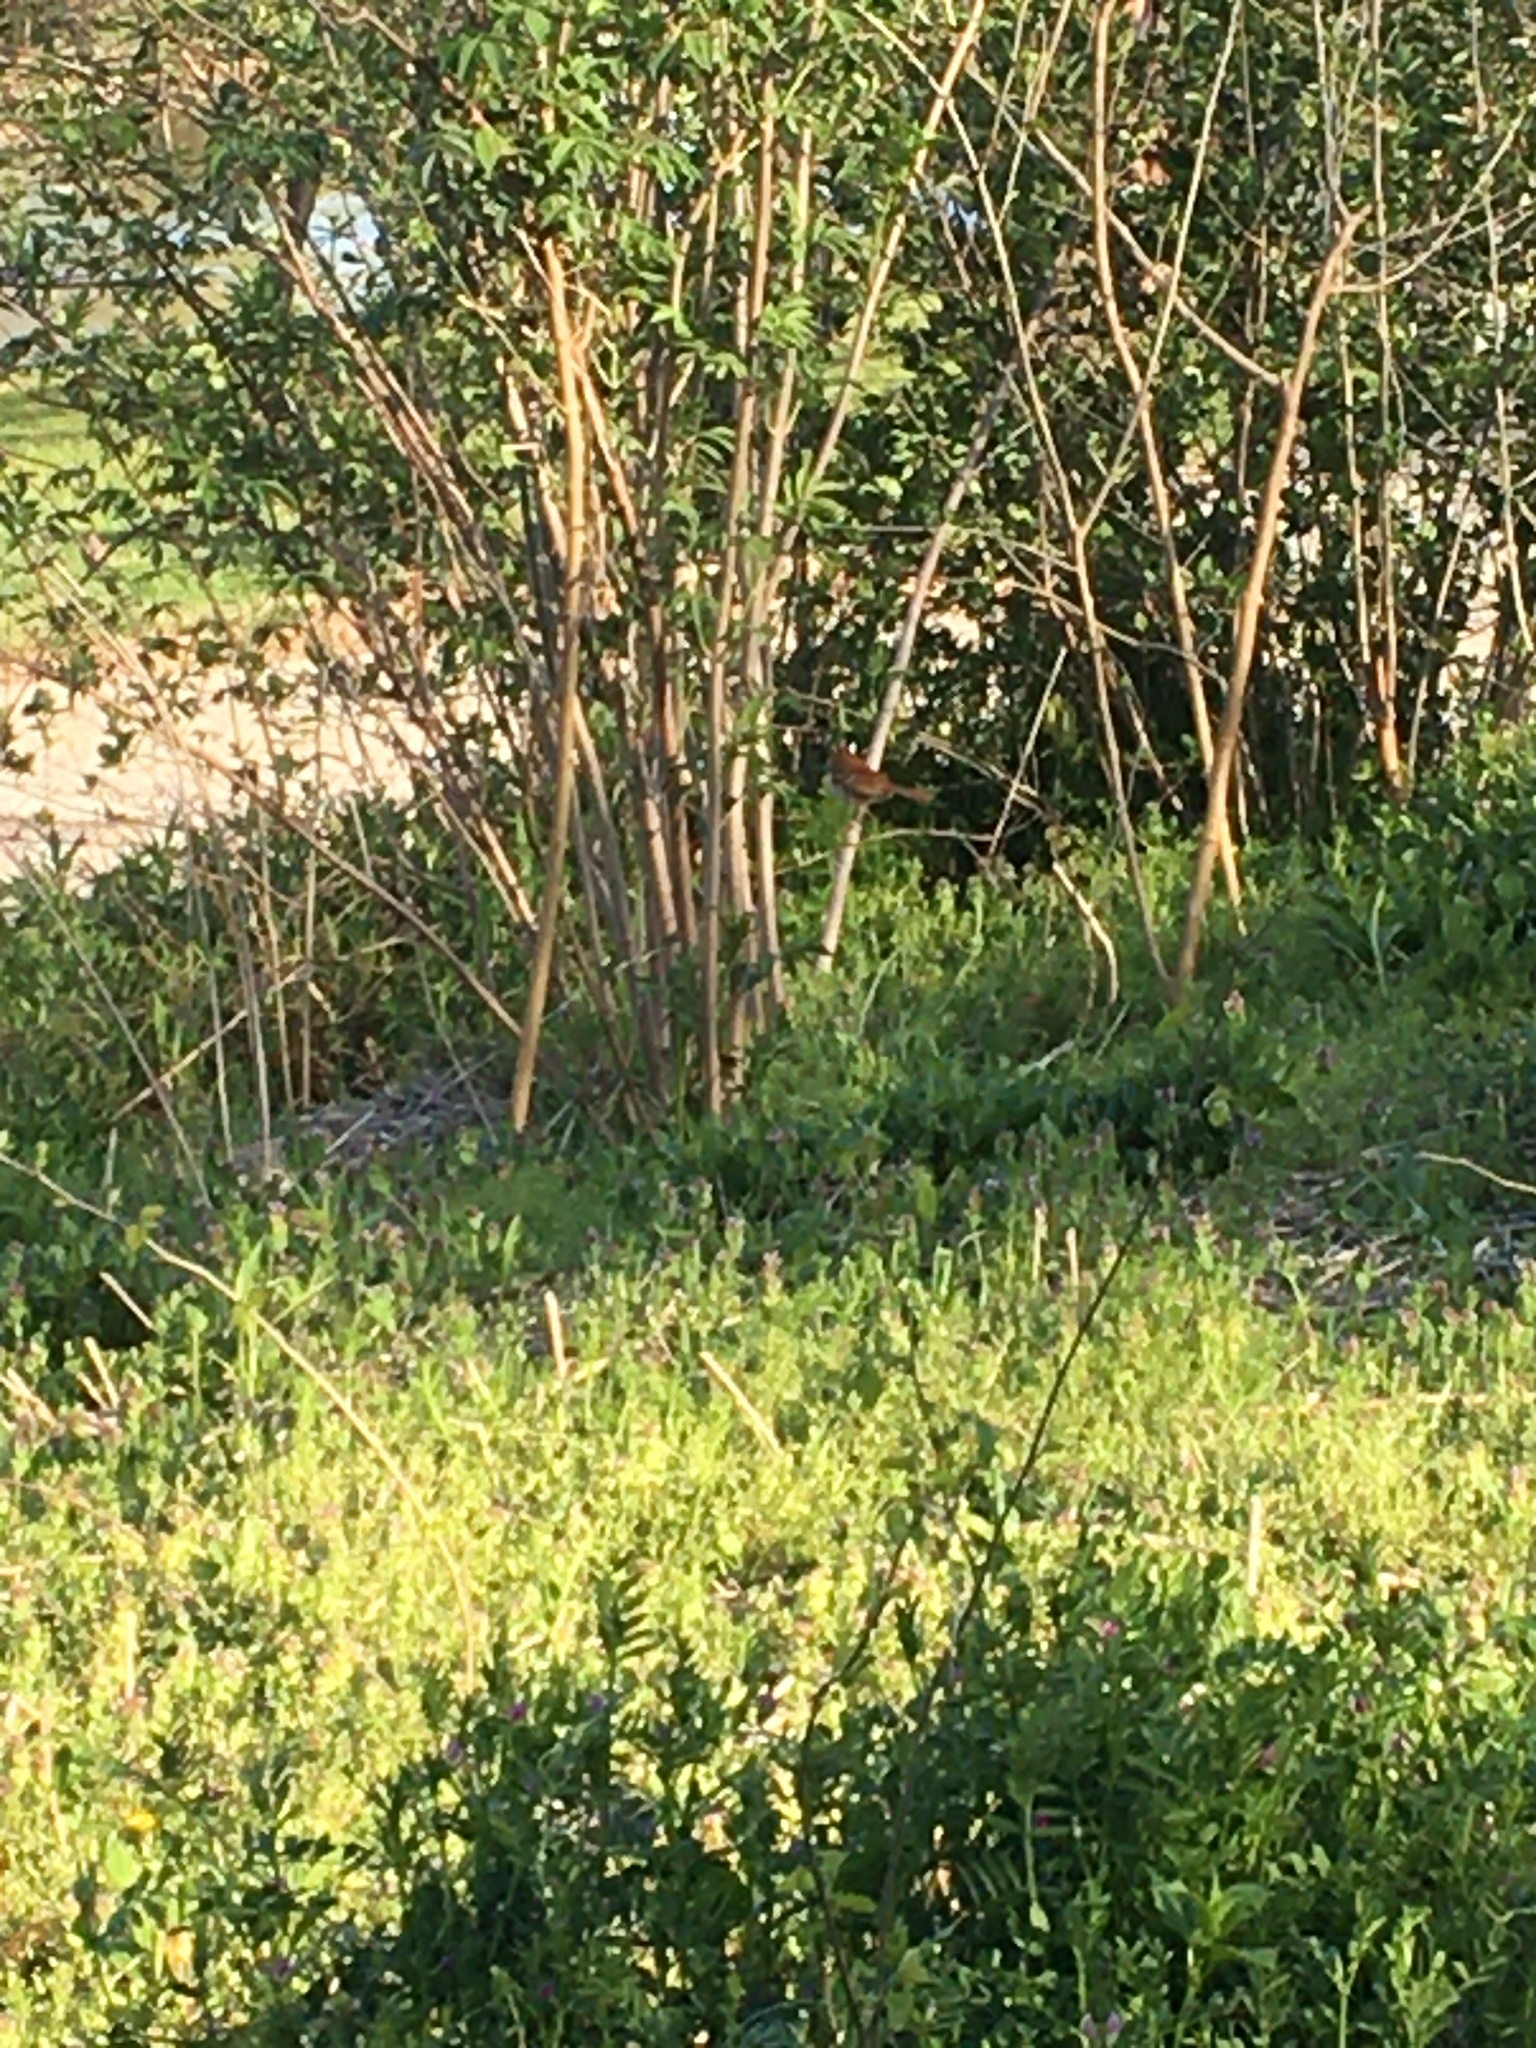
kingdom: Animalia
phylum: Chordata
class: Aves
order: Passeriformes
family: Mimidae
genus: Toxostoma
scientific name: Toxostoma rufum
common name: Brown thrasher
